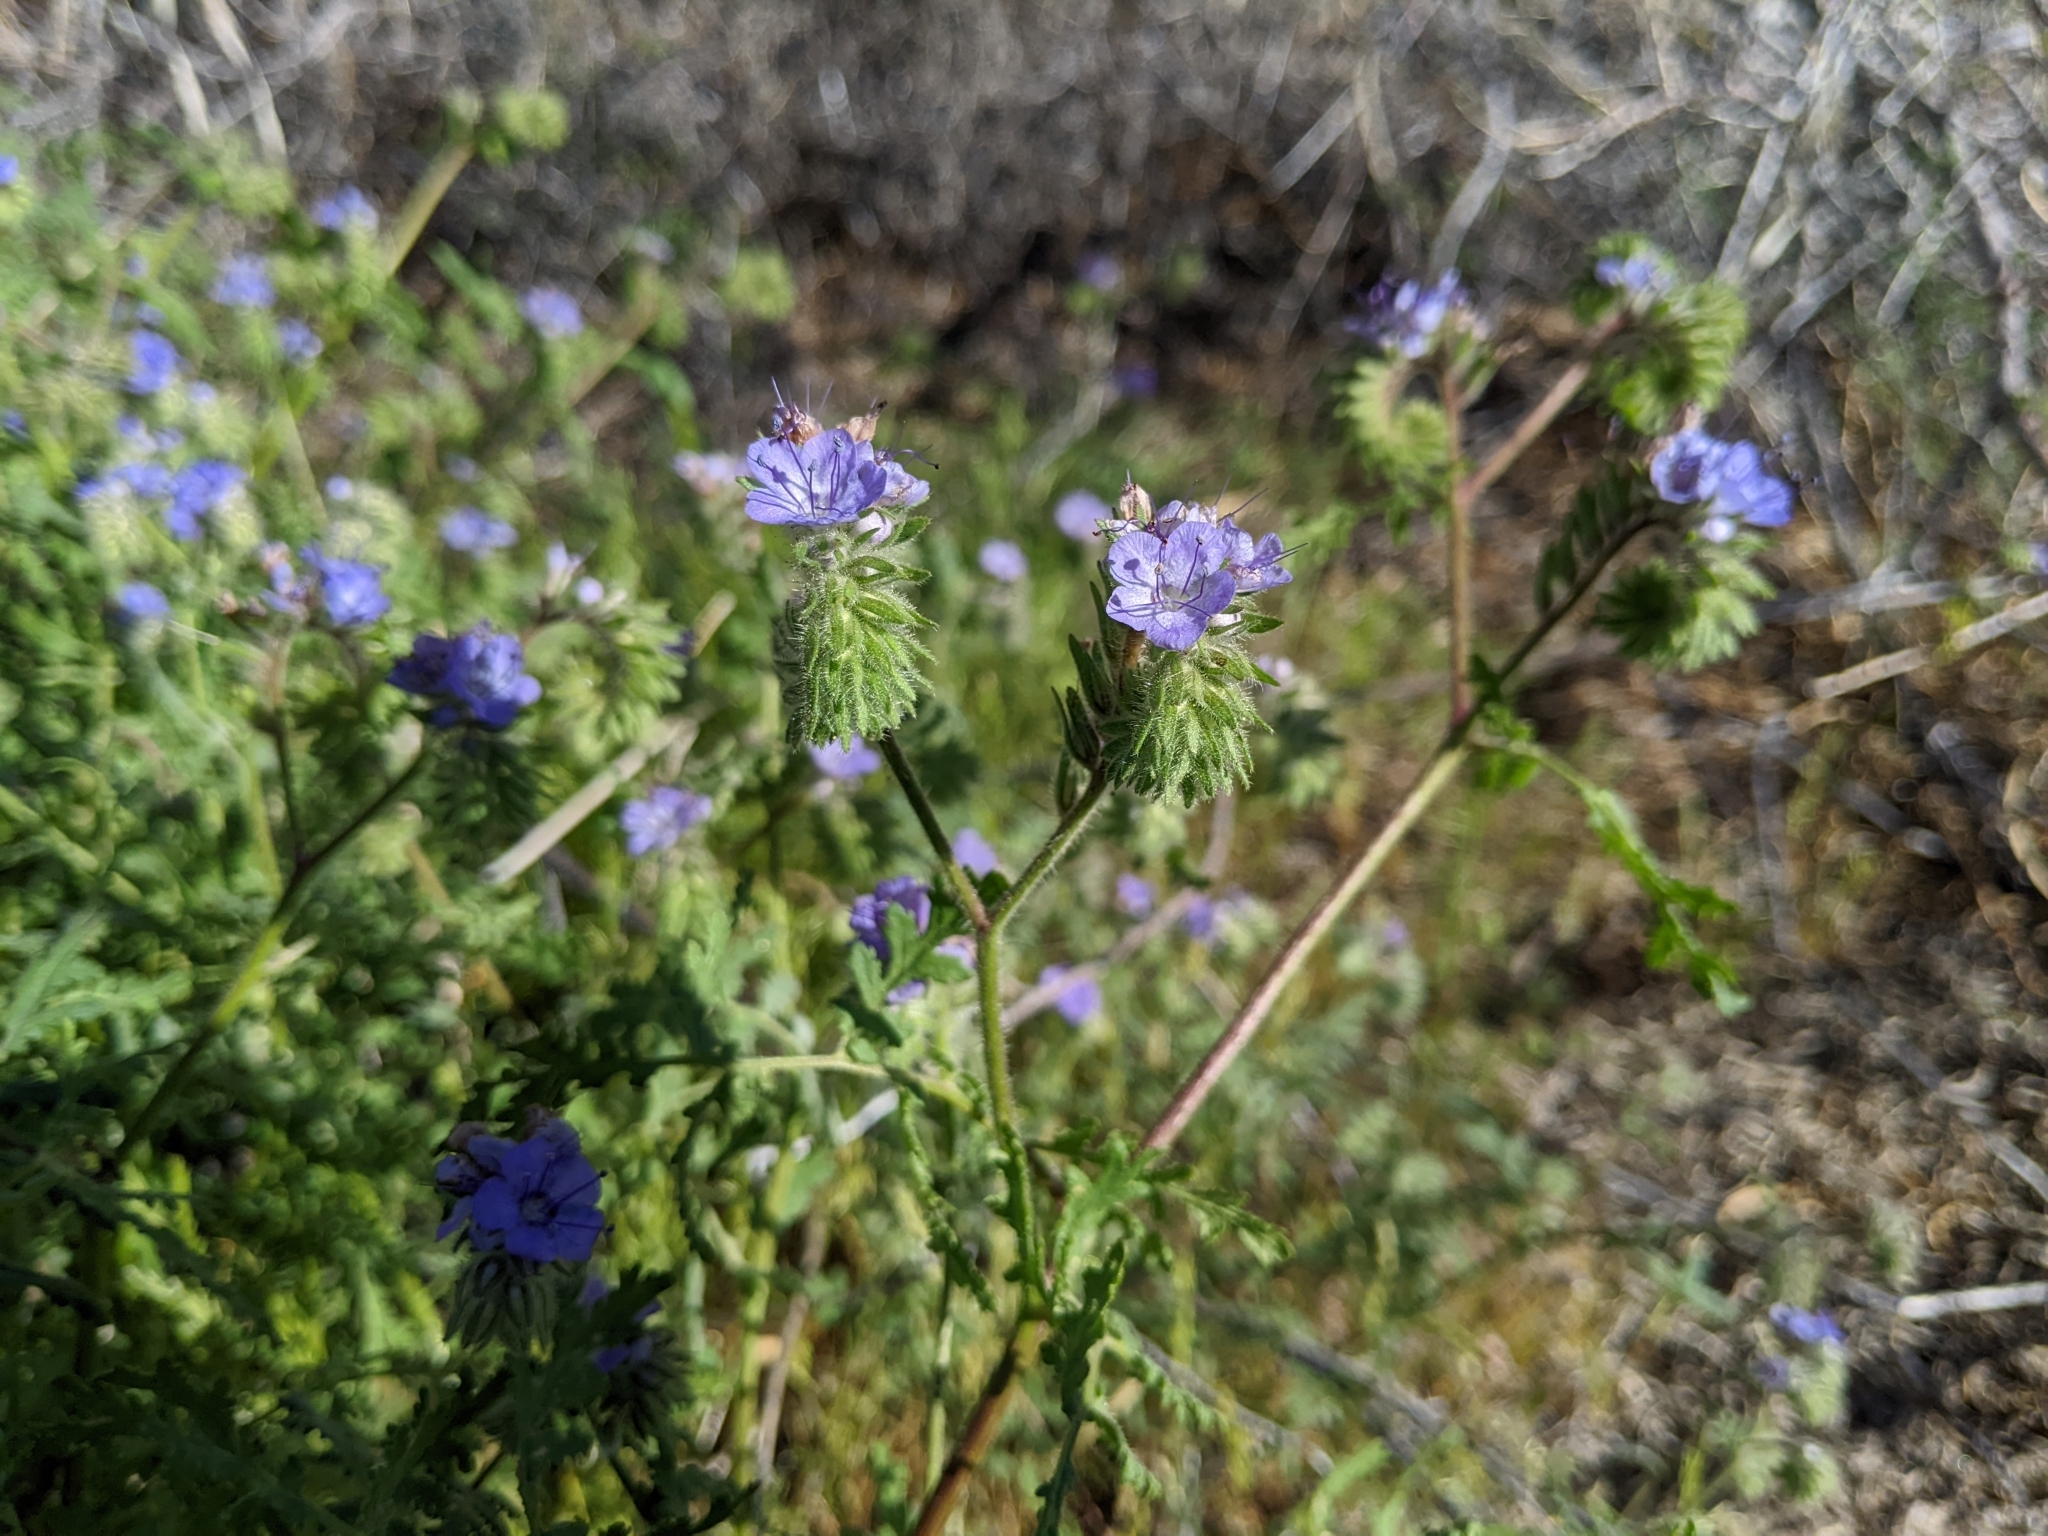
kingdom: Plantae
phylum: Tracheophyta
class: Magnoliopsida
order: Boraginales
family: Hydrophyllaceae
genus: Phacelia
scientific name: Phacelia distans
